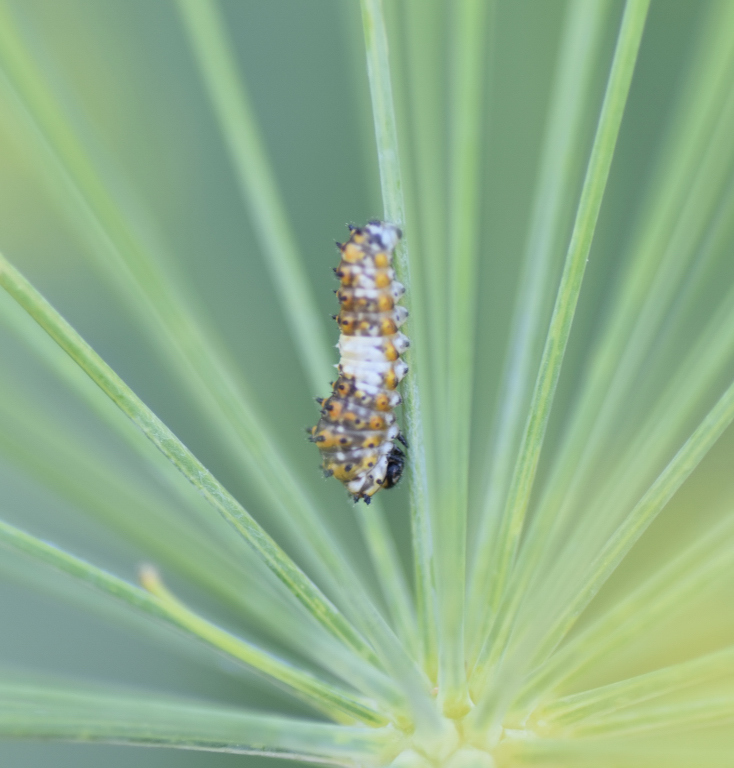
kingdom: Animalia
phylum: Arthropoda
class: Insecta
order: Lepidoptera
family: Papilionidae
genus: Papilio
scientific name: Papilio polyxenes
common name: Black swallowtail
